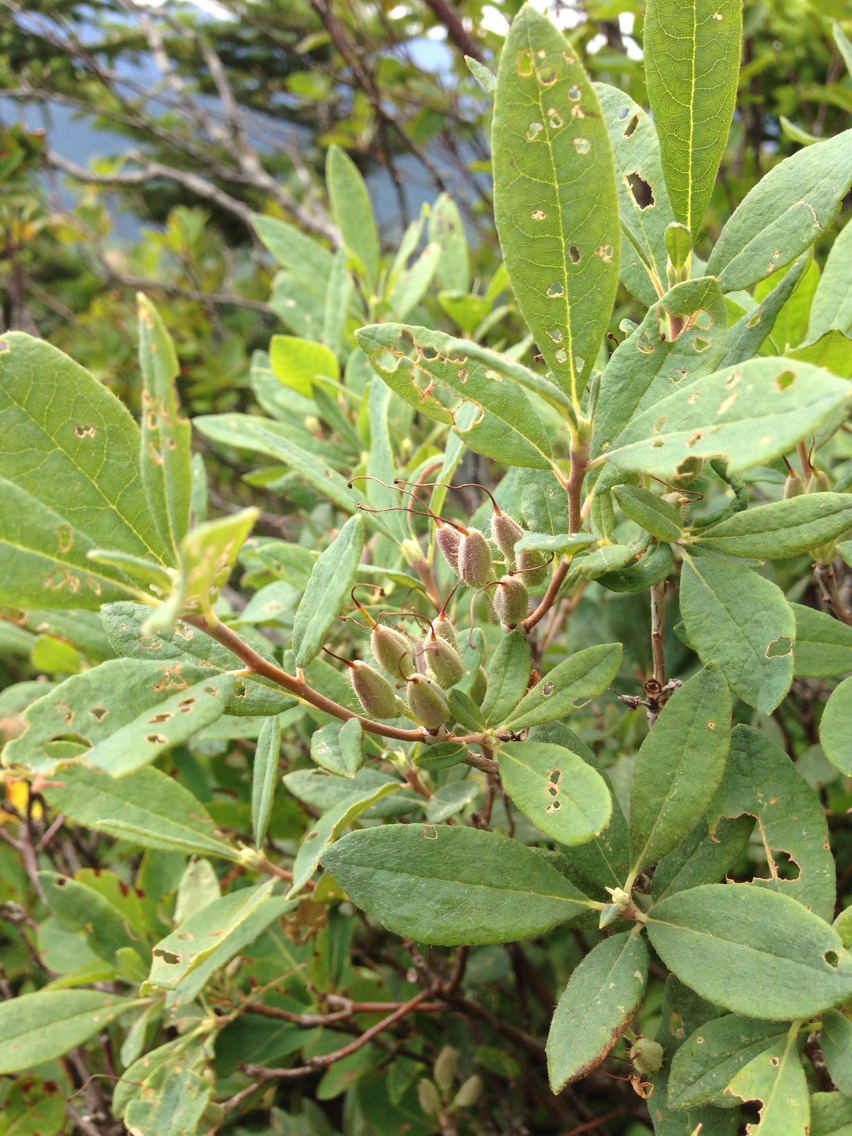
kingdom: Plantae
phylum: Tracheophyta
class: Magnoliopsida
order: Ericales
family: Ericaceae
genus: Rhododendron
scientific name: Rhododendron canadense
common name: Rhodora
